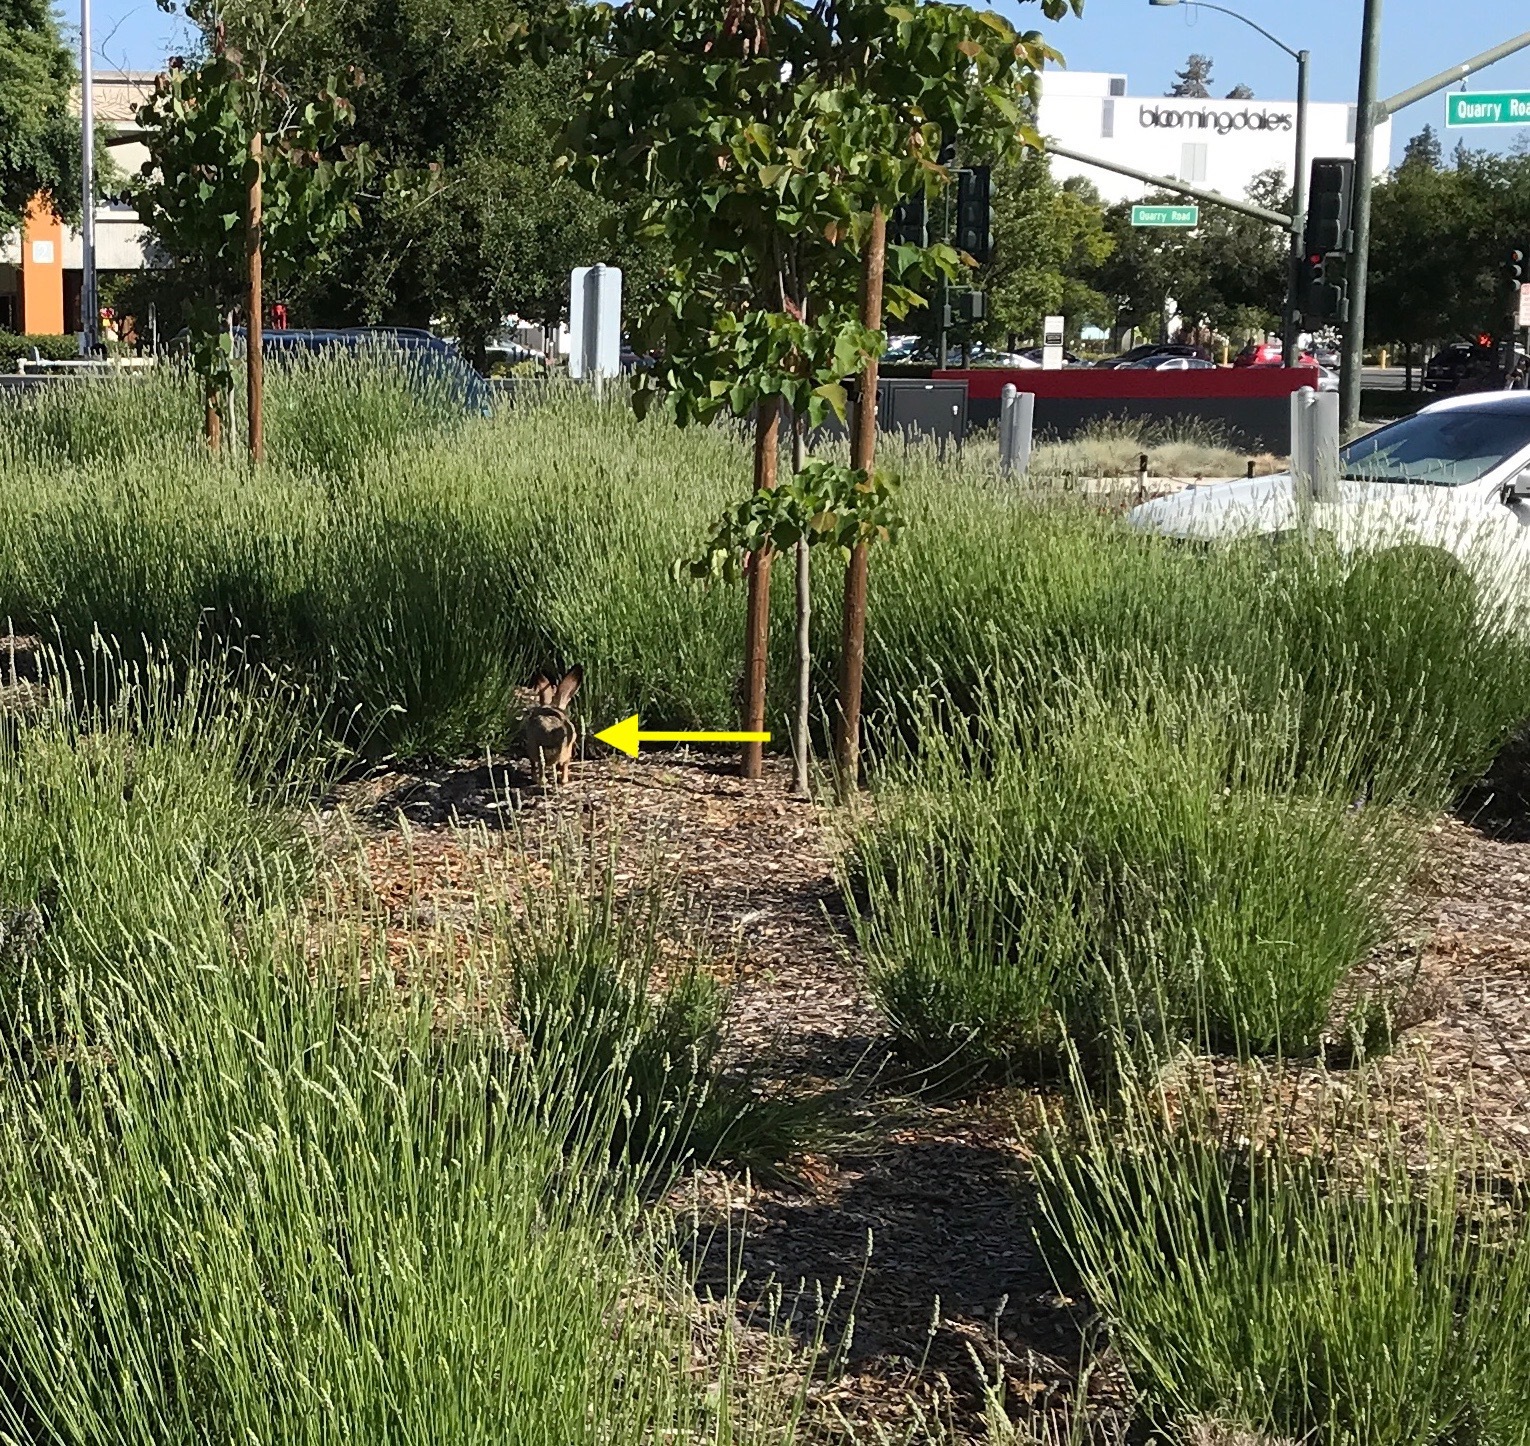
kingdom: Animalia
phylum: Chordata
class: Mammalia
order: Lagomorpha
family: Leporidae
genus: Lepus
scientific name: Lepus californicus
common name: Black-tailed jackrabbit
